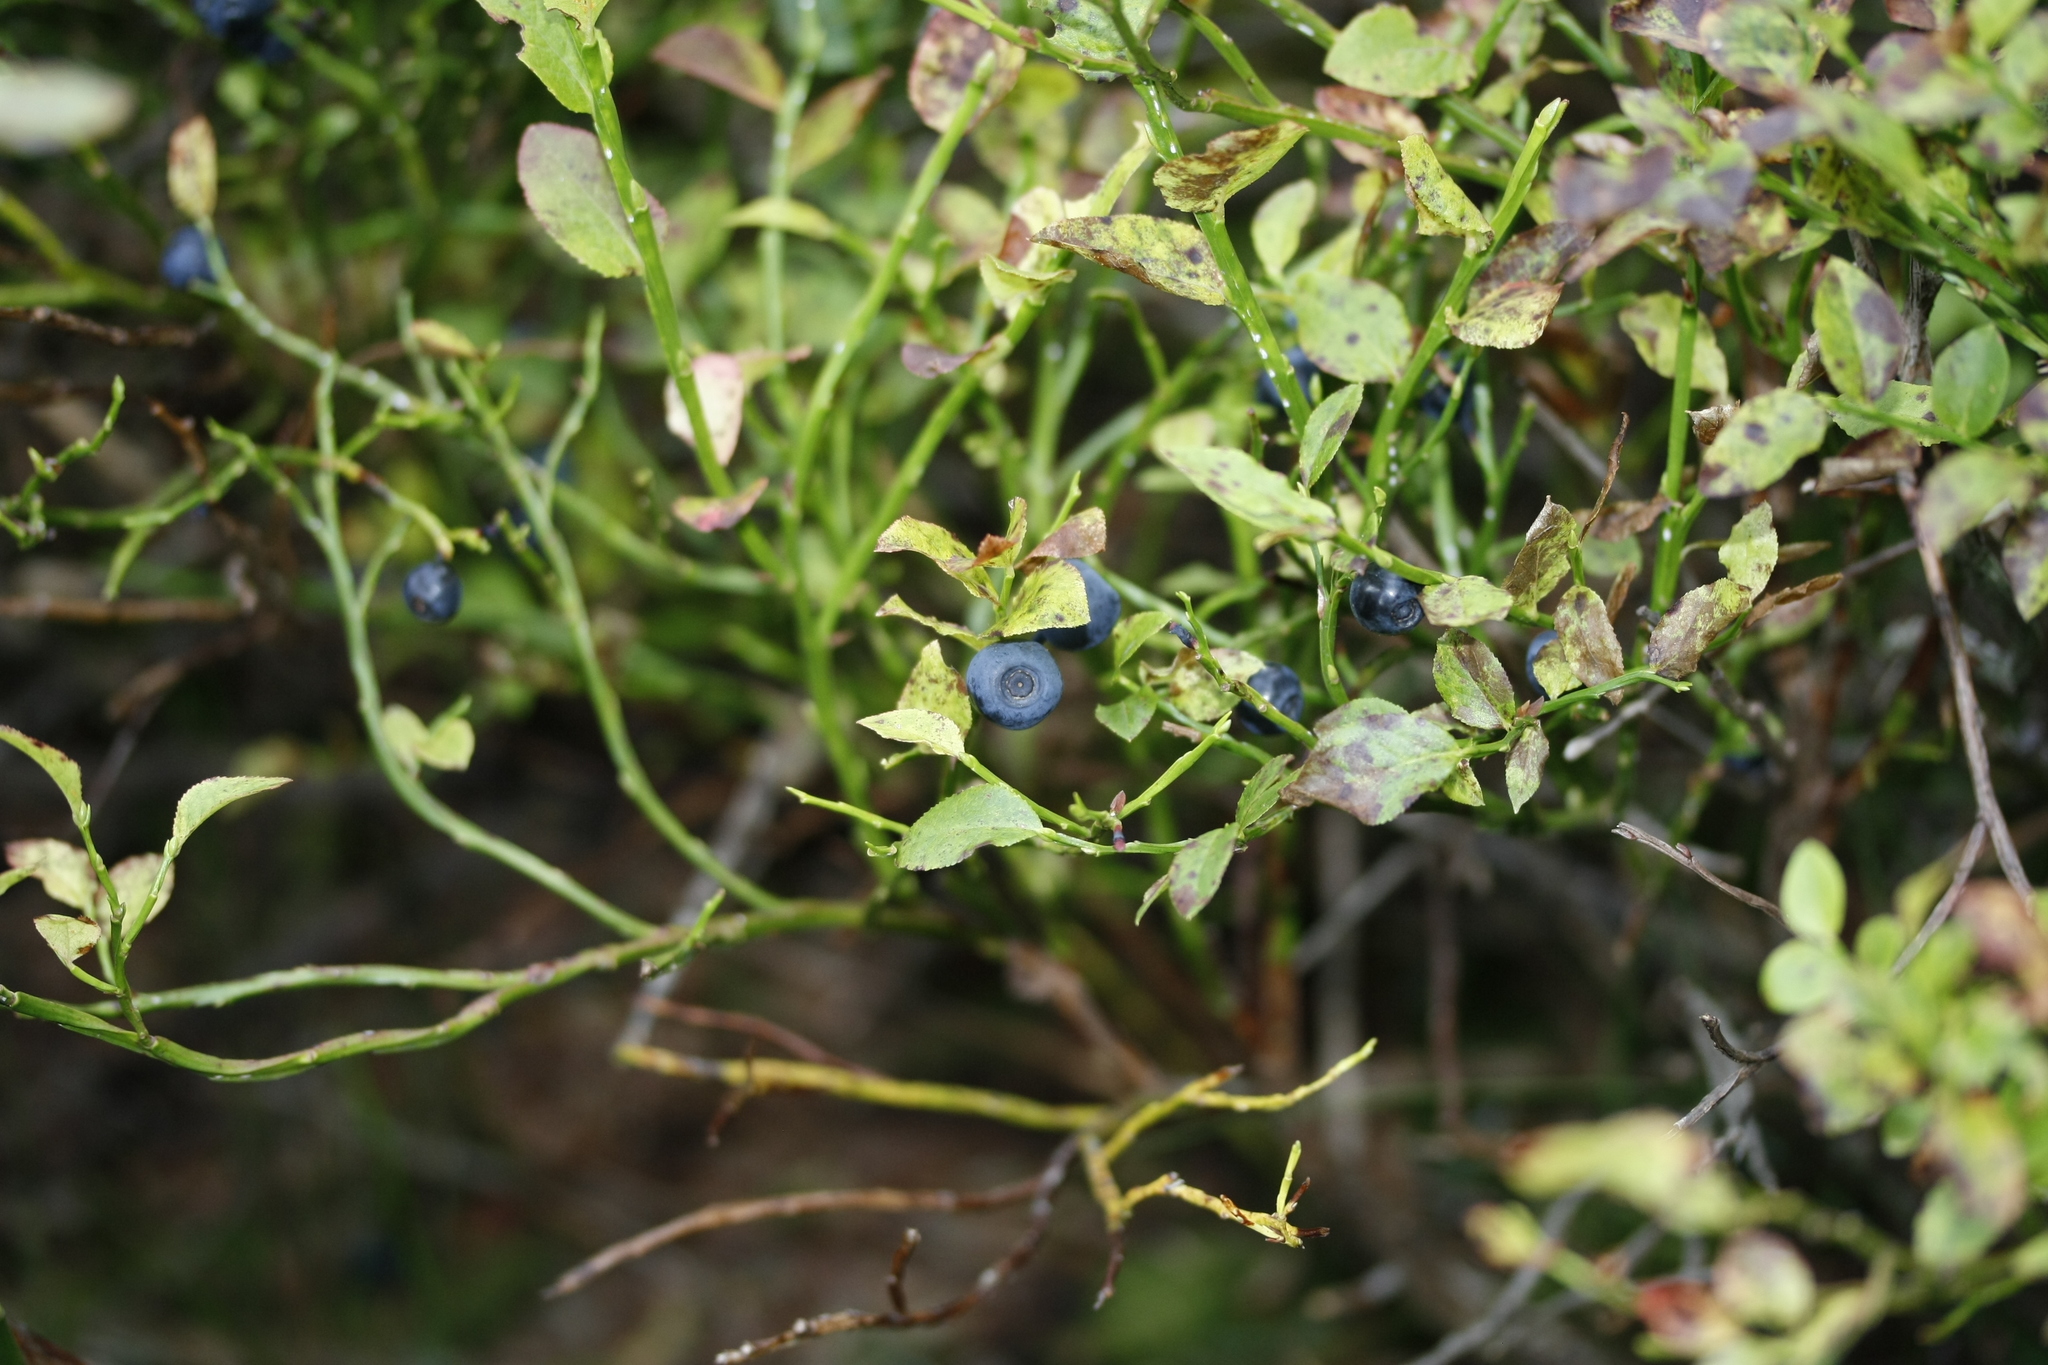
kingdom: Plantae
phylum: Tracheophyta
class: Magnoliopsida
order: Ericales
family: Ericaceae
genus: Vaccinium
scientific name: Vaccinium myrtillus
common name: Bilberry
